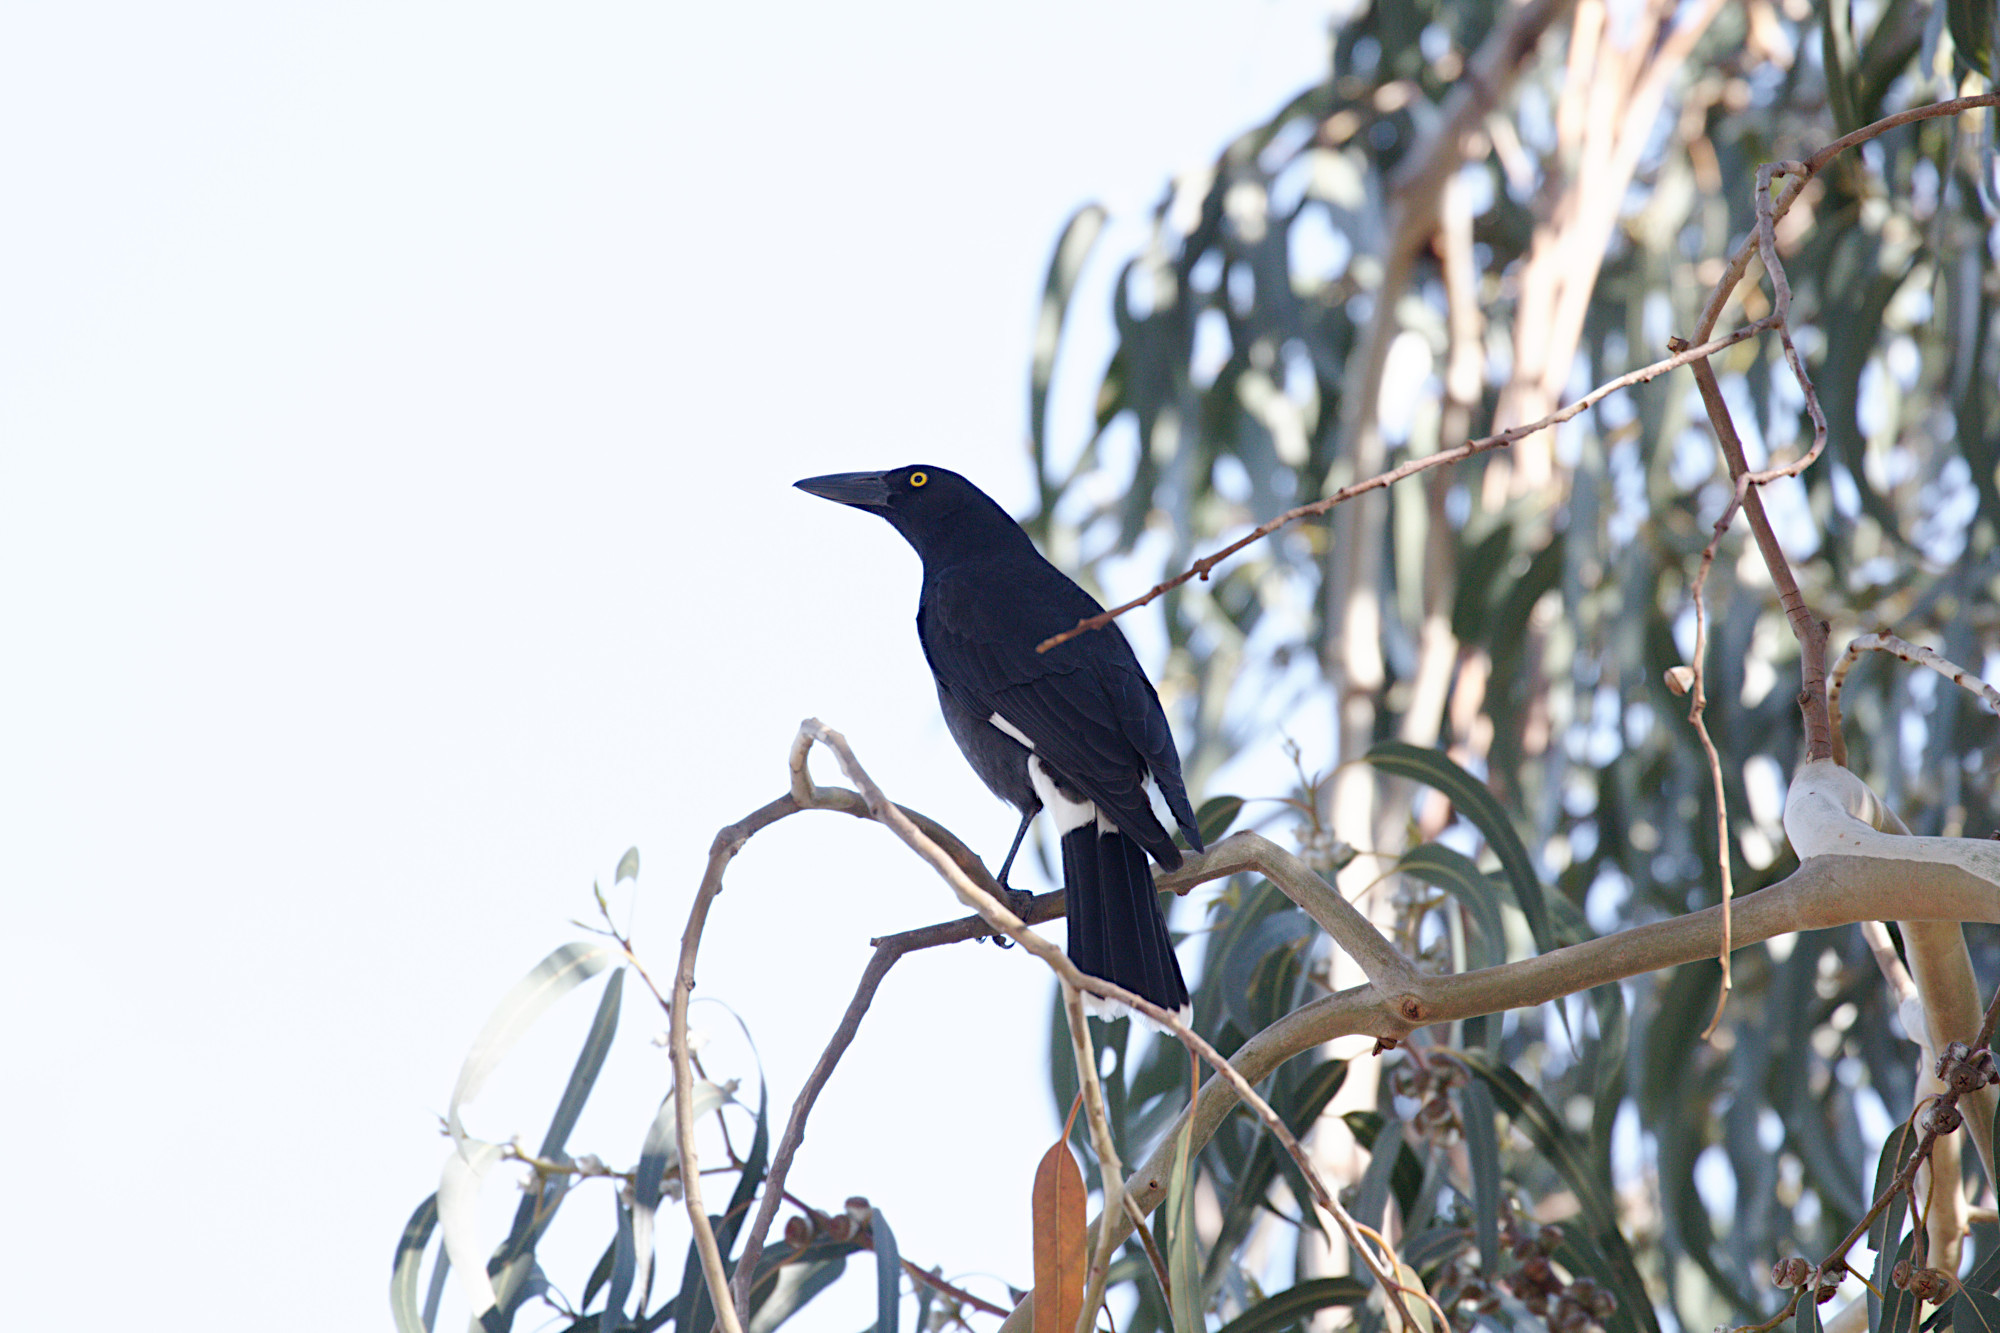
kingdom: Animalia
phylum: Chordata
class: Aves
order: Passeriformes
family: Cracticidae
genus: Strepera
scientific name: Strepera graculina
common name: Pied currawong
